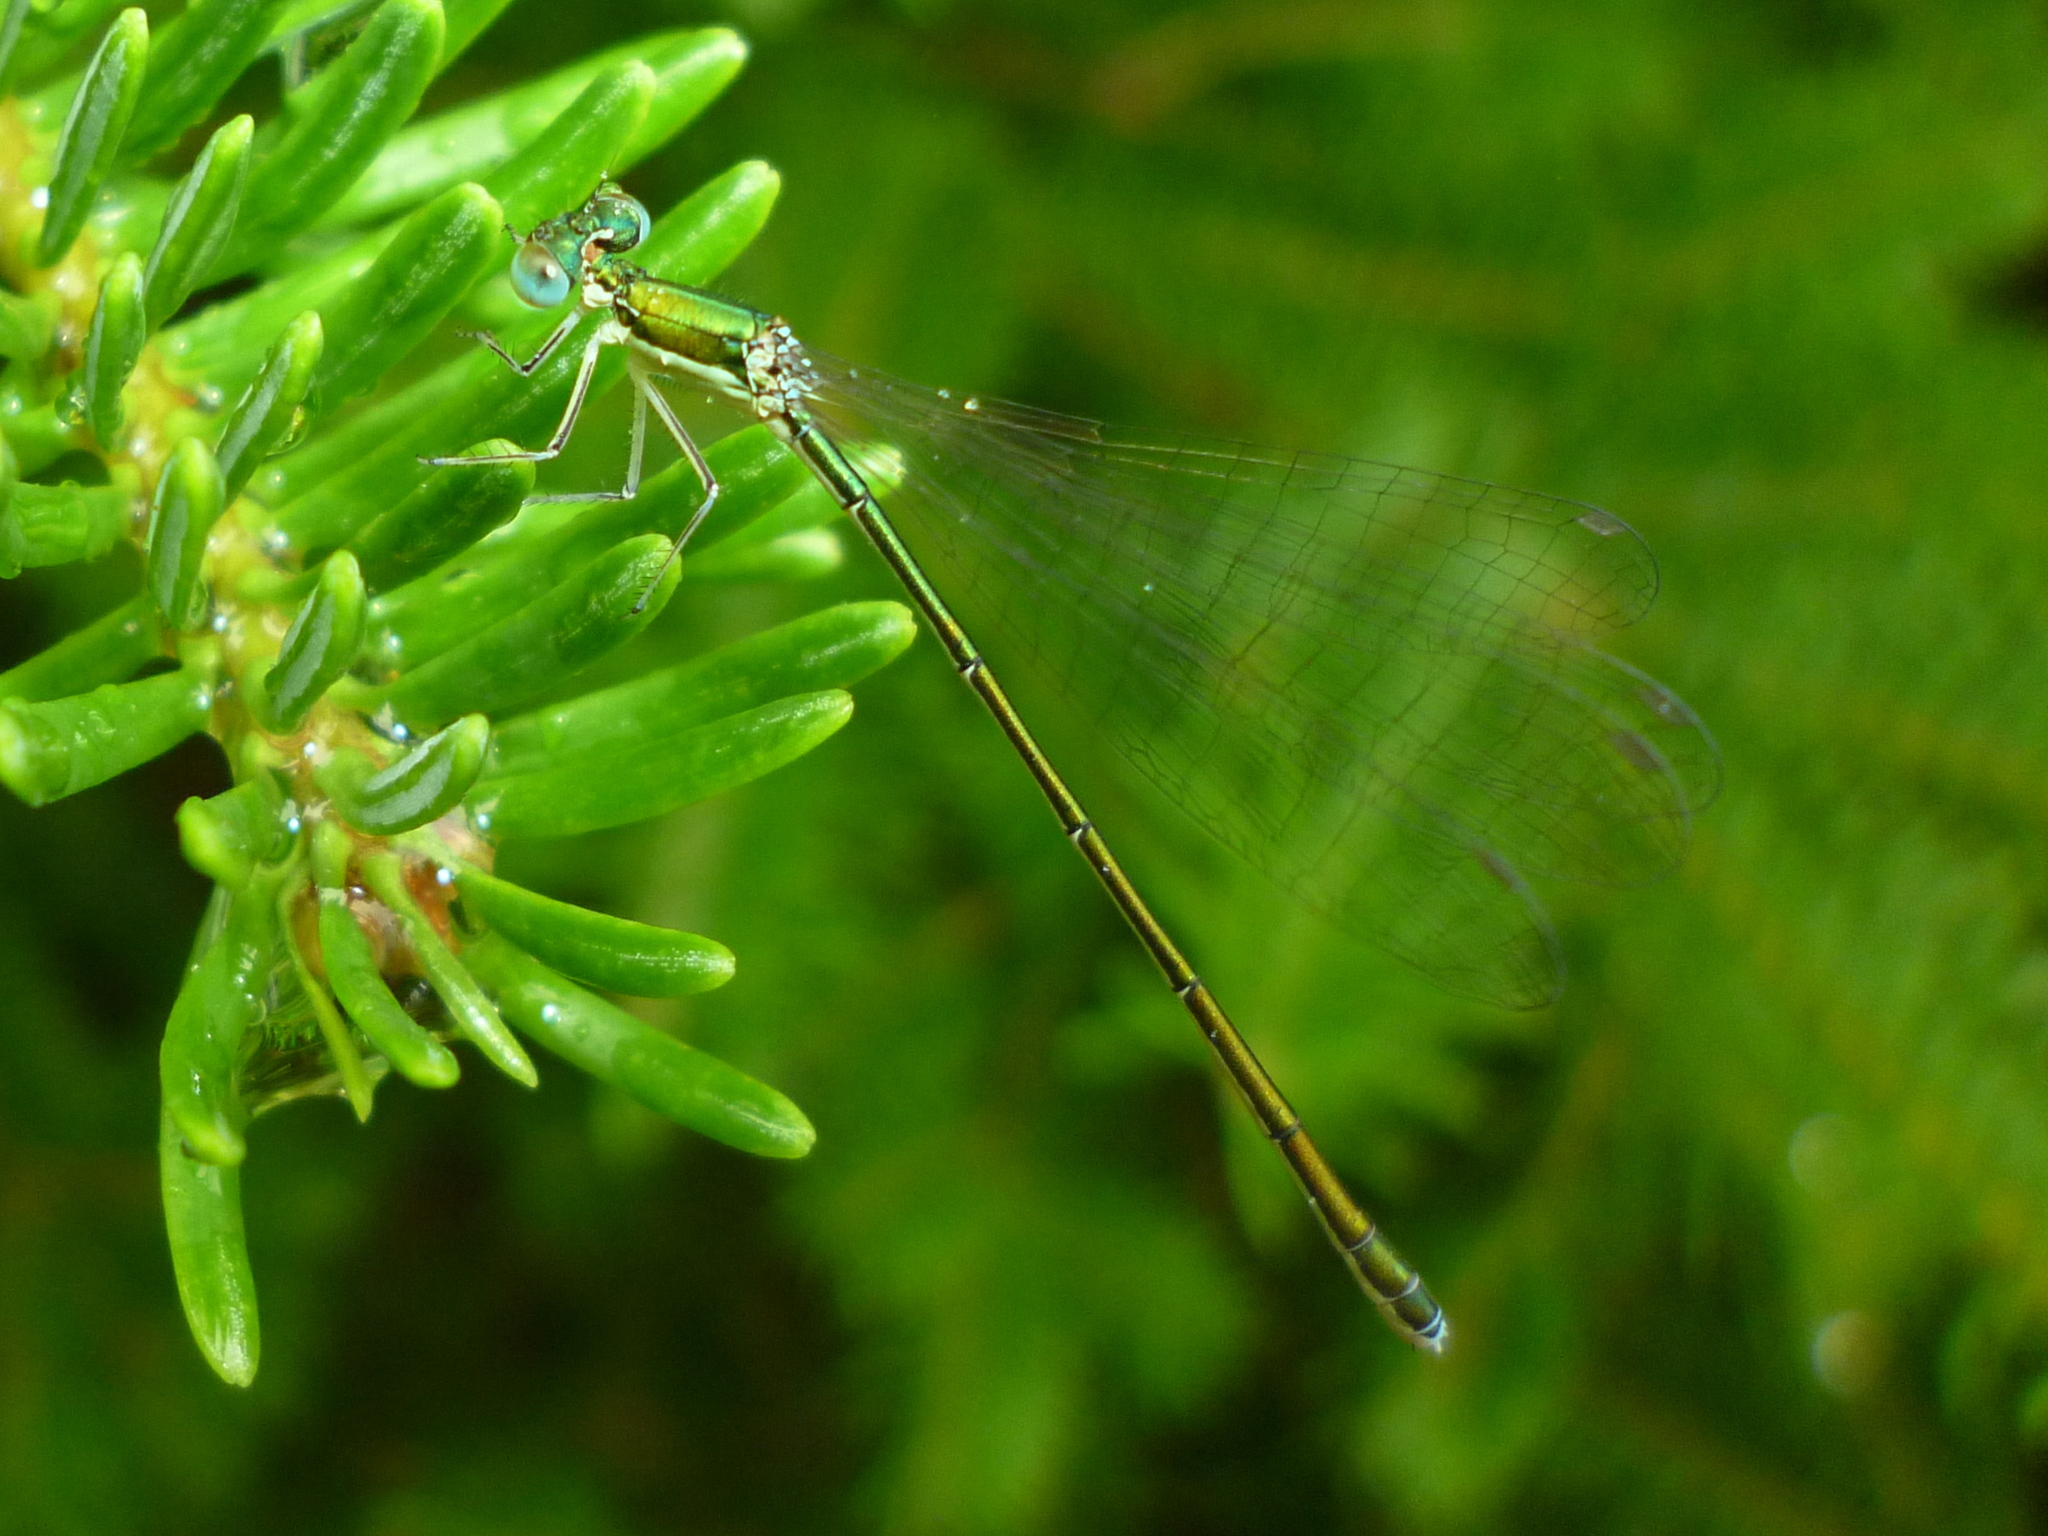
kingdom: Animalia
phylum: Arthropoda
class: Insecta
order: Odonata
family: Coenagrionidae
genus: Nehalennia
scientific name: Nehalennia irene
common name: Sedge sprite
